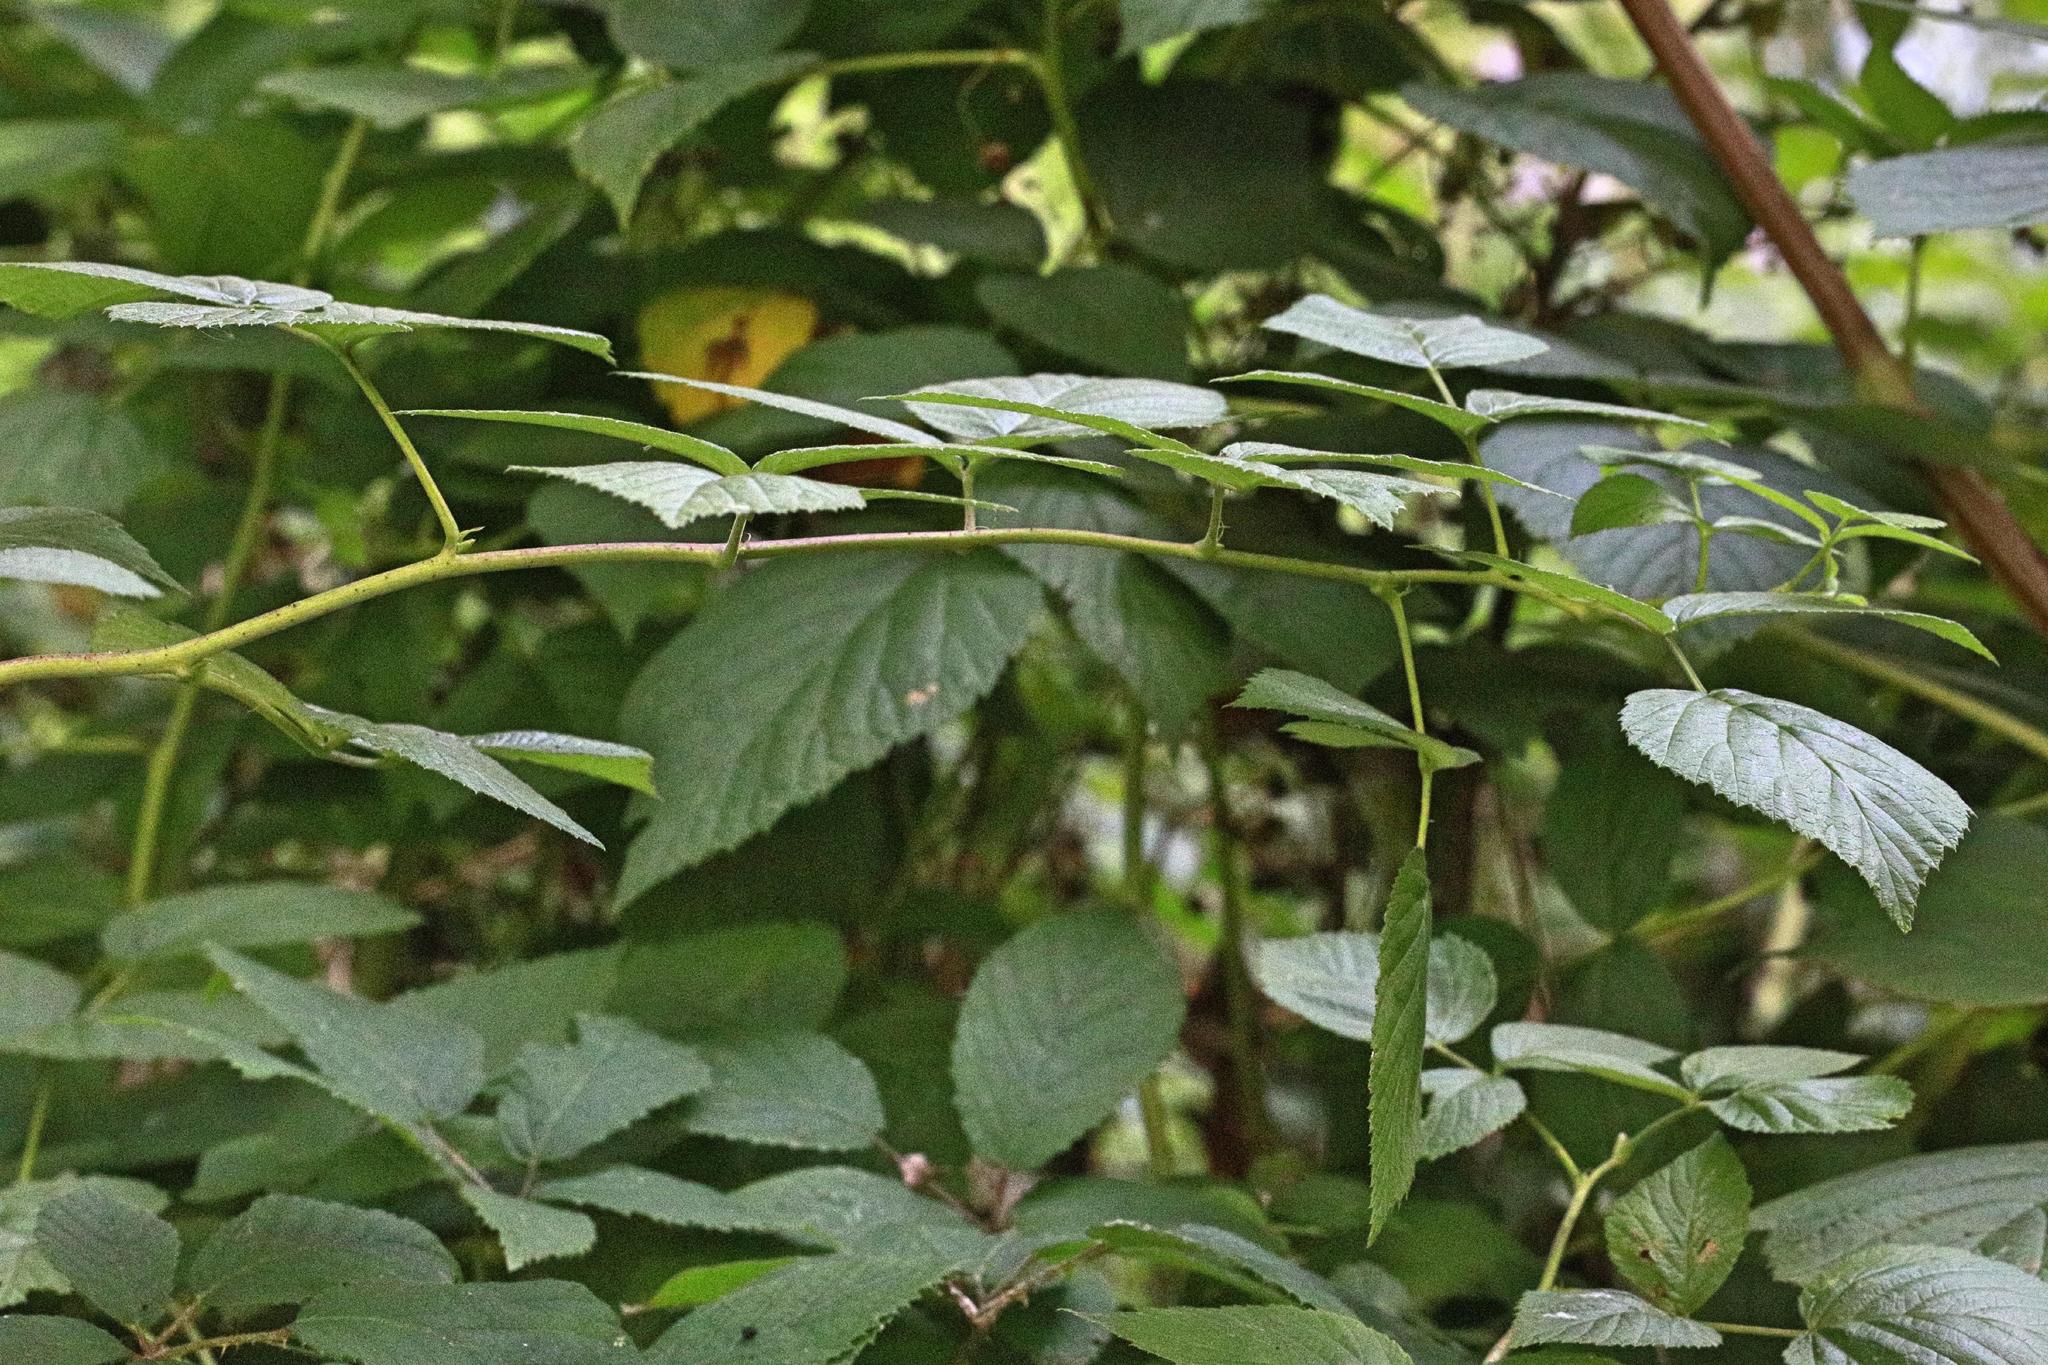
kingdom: Plantae
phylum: Tracheophyta
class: Magnoliopsida
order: Rosales
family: Rosaceae
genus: Rubus
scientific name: Rubus idaeus
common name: Raspberry
